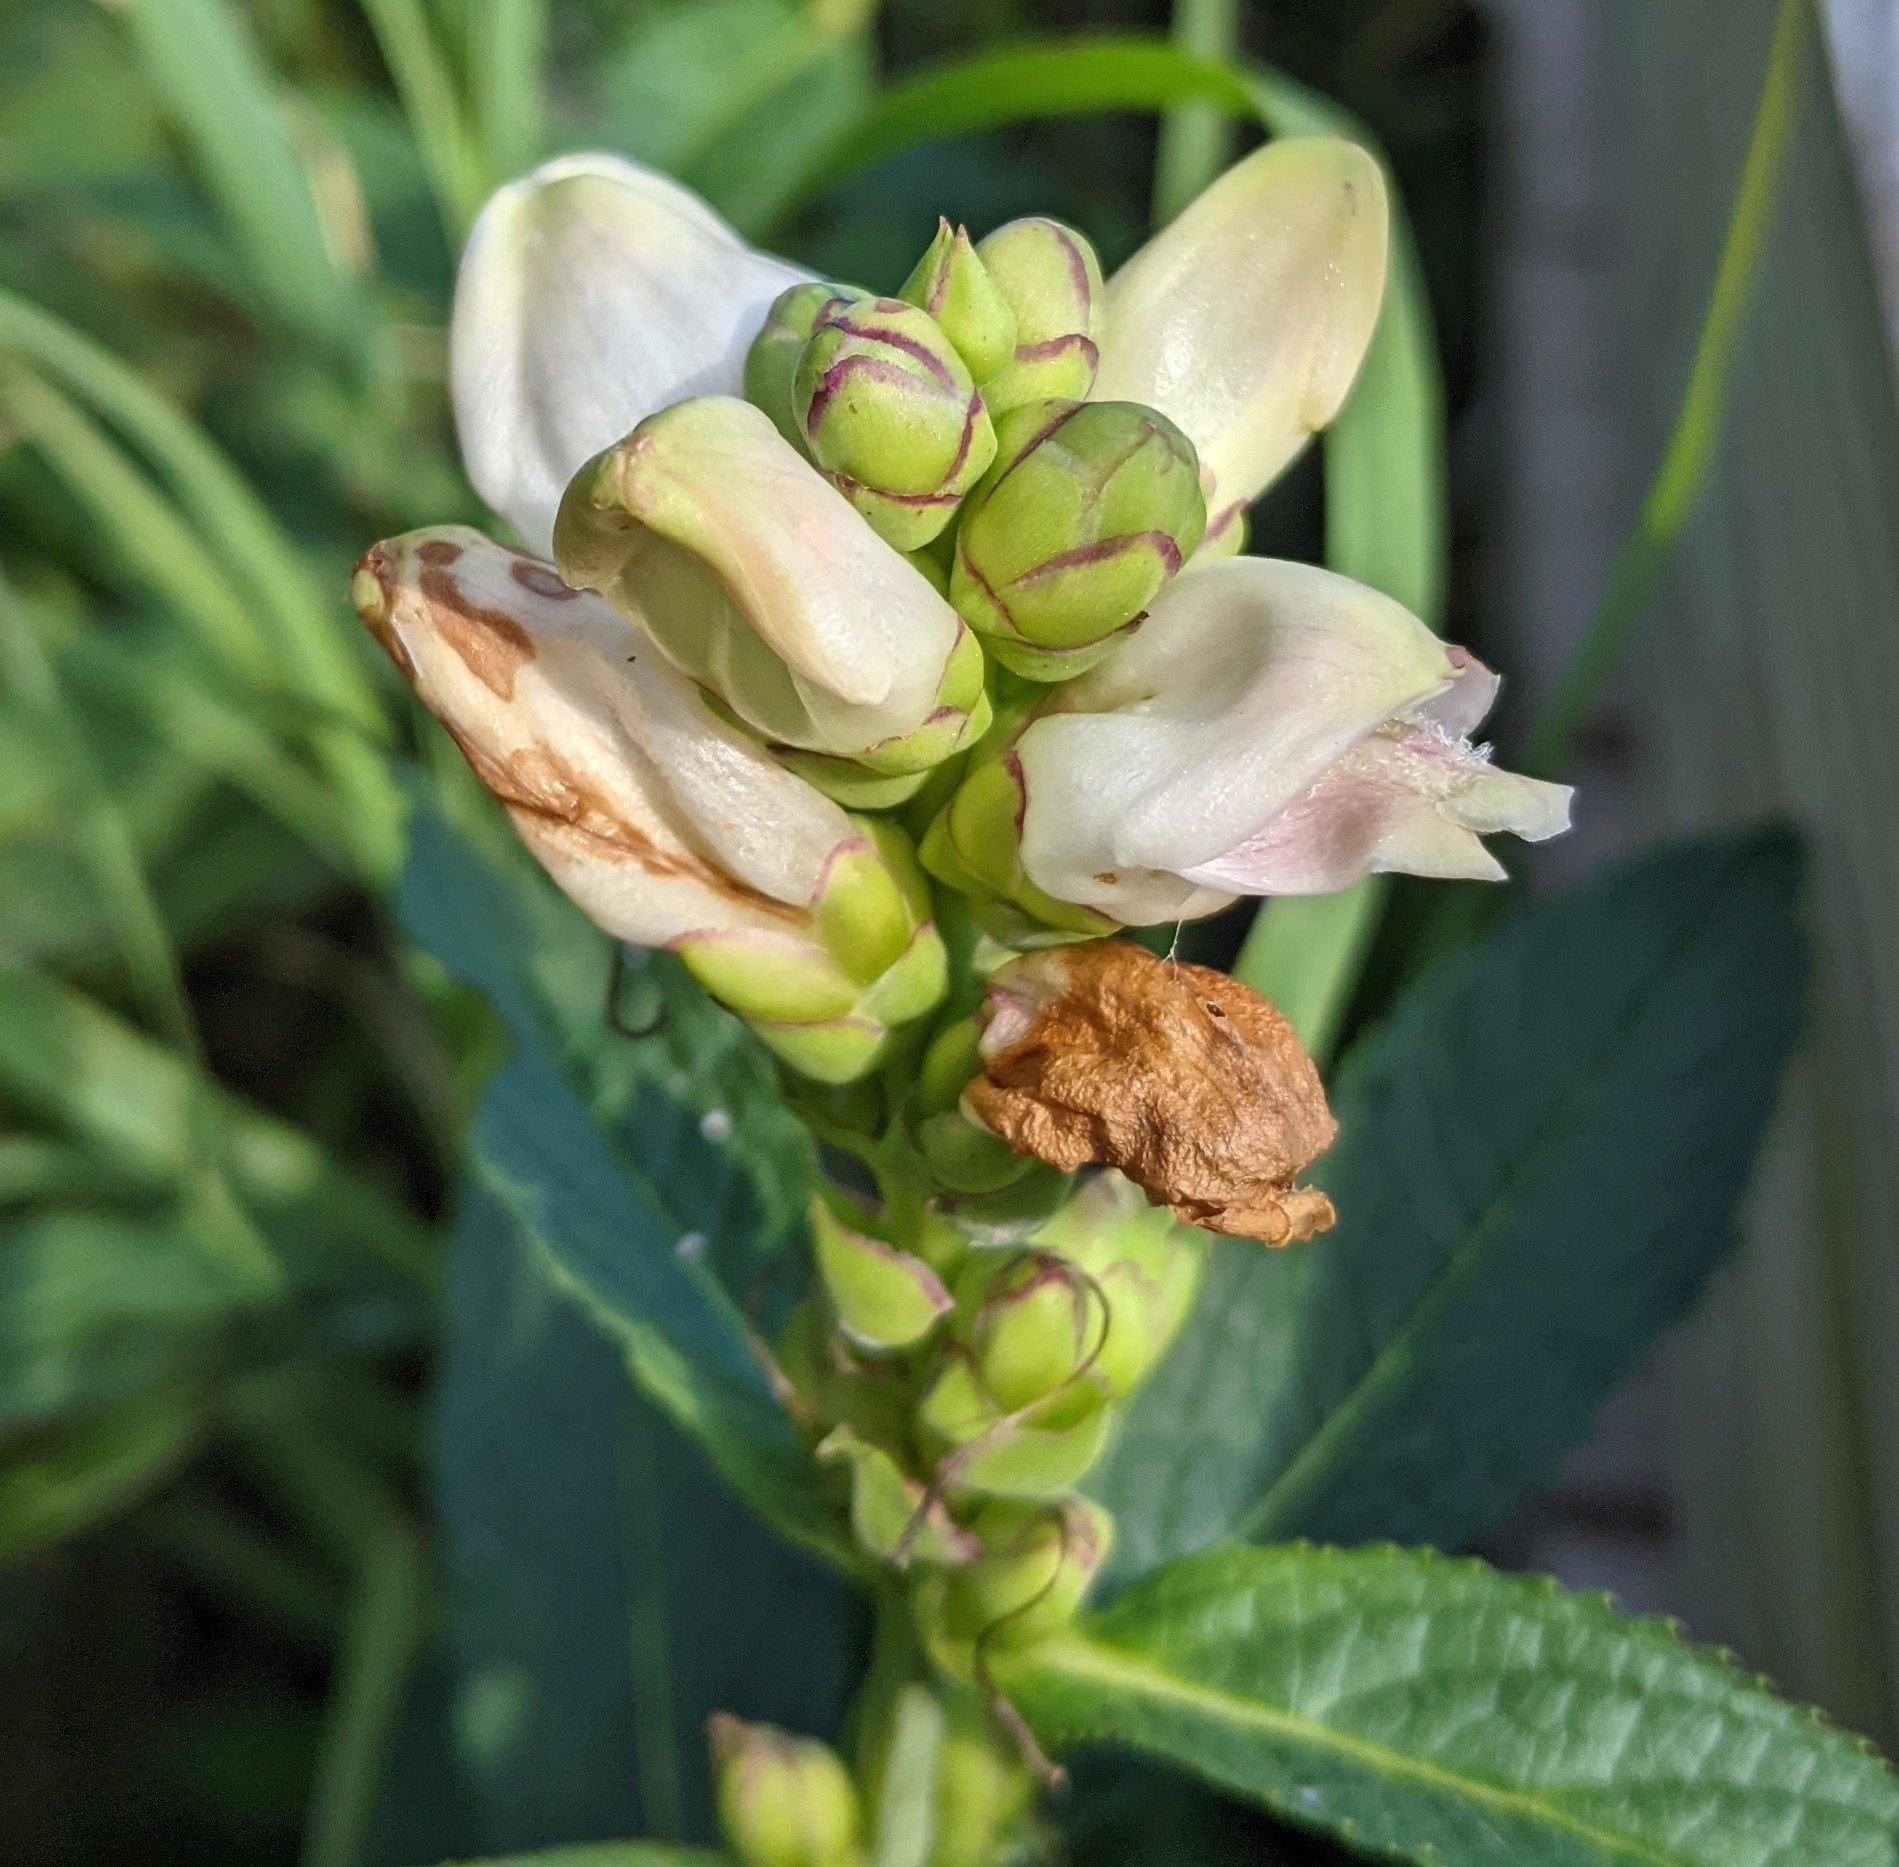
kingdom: Plantae
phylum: Tracheophyta
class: Magnoliopsida
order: Lamiales
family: Plantaginaceae
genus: Chelone
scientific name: Chelone glabra
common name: Snakehead
